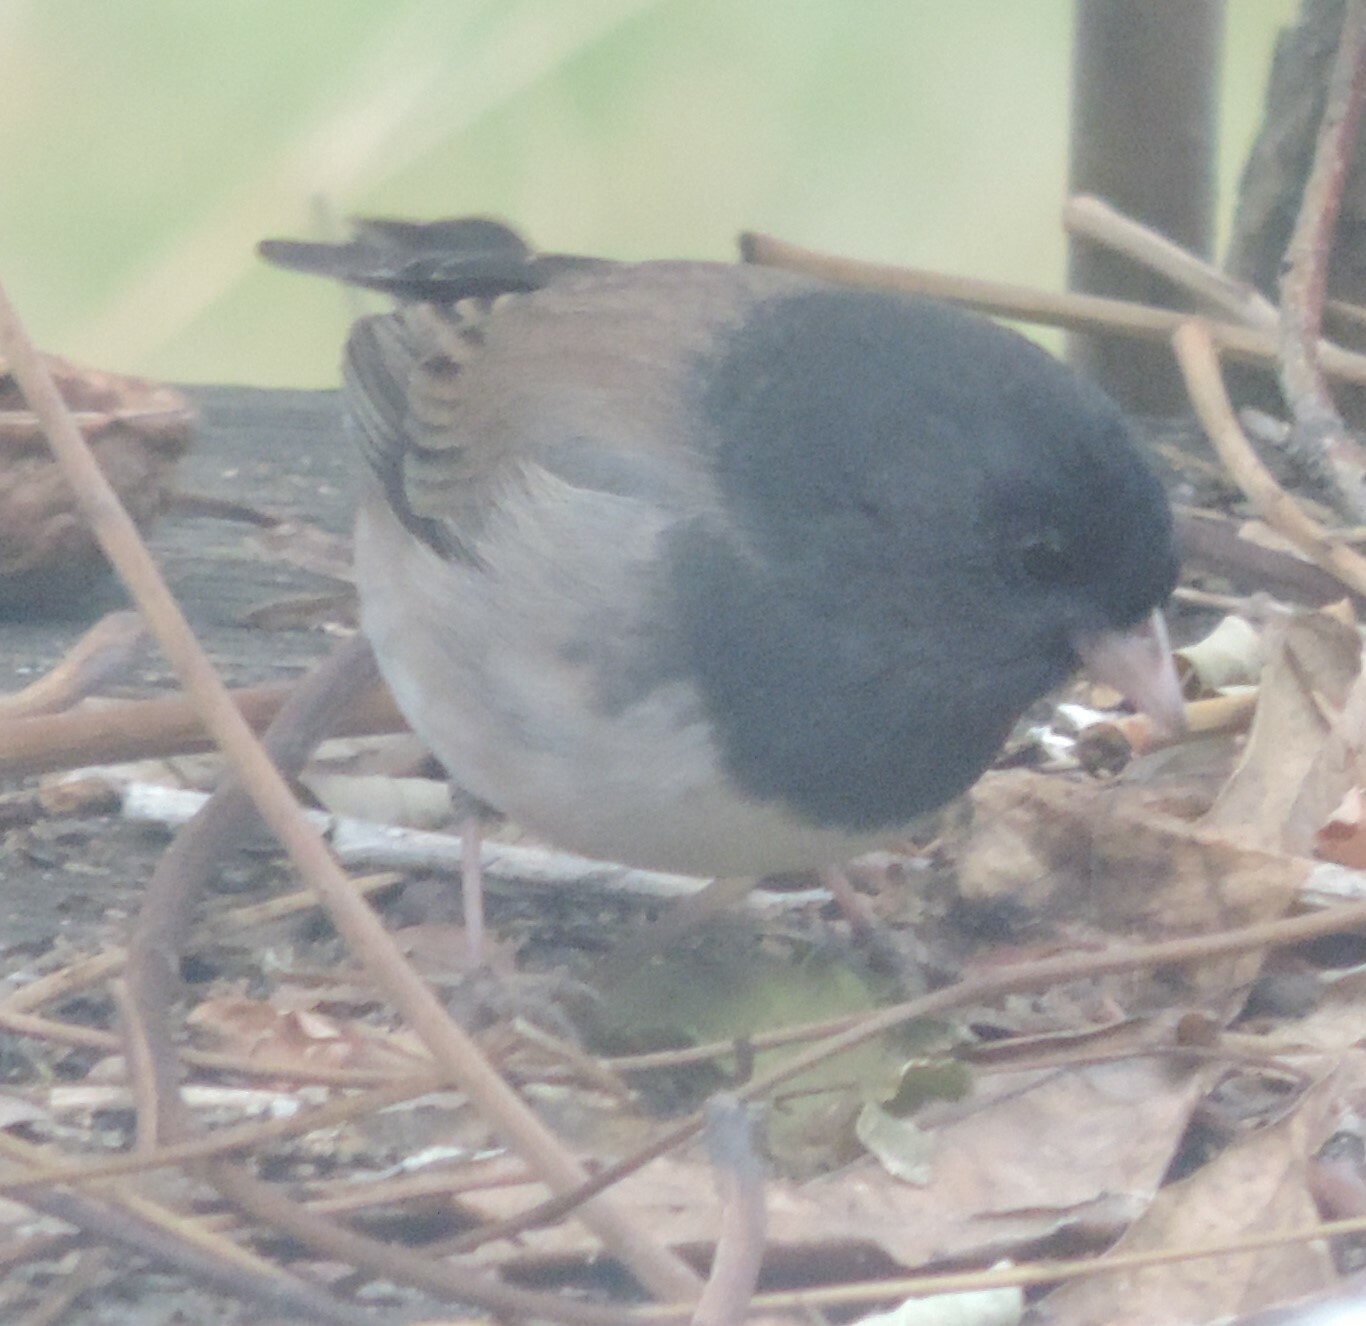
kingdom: Animalia
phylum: Chordata
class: Aves
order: Passeriformes
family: Passerellidae
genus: Junco
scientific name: Junco hyemalis
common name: Dark-eyed junco
